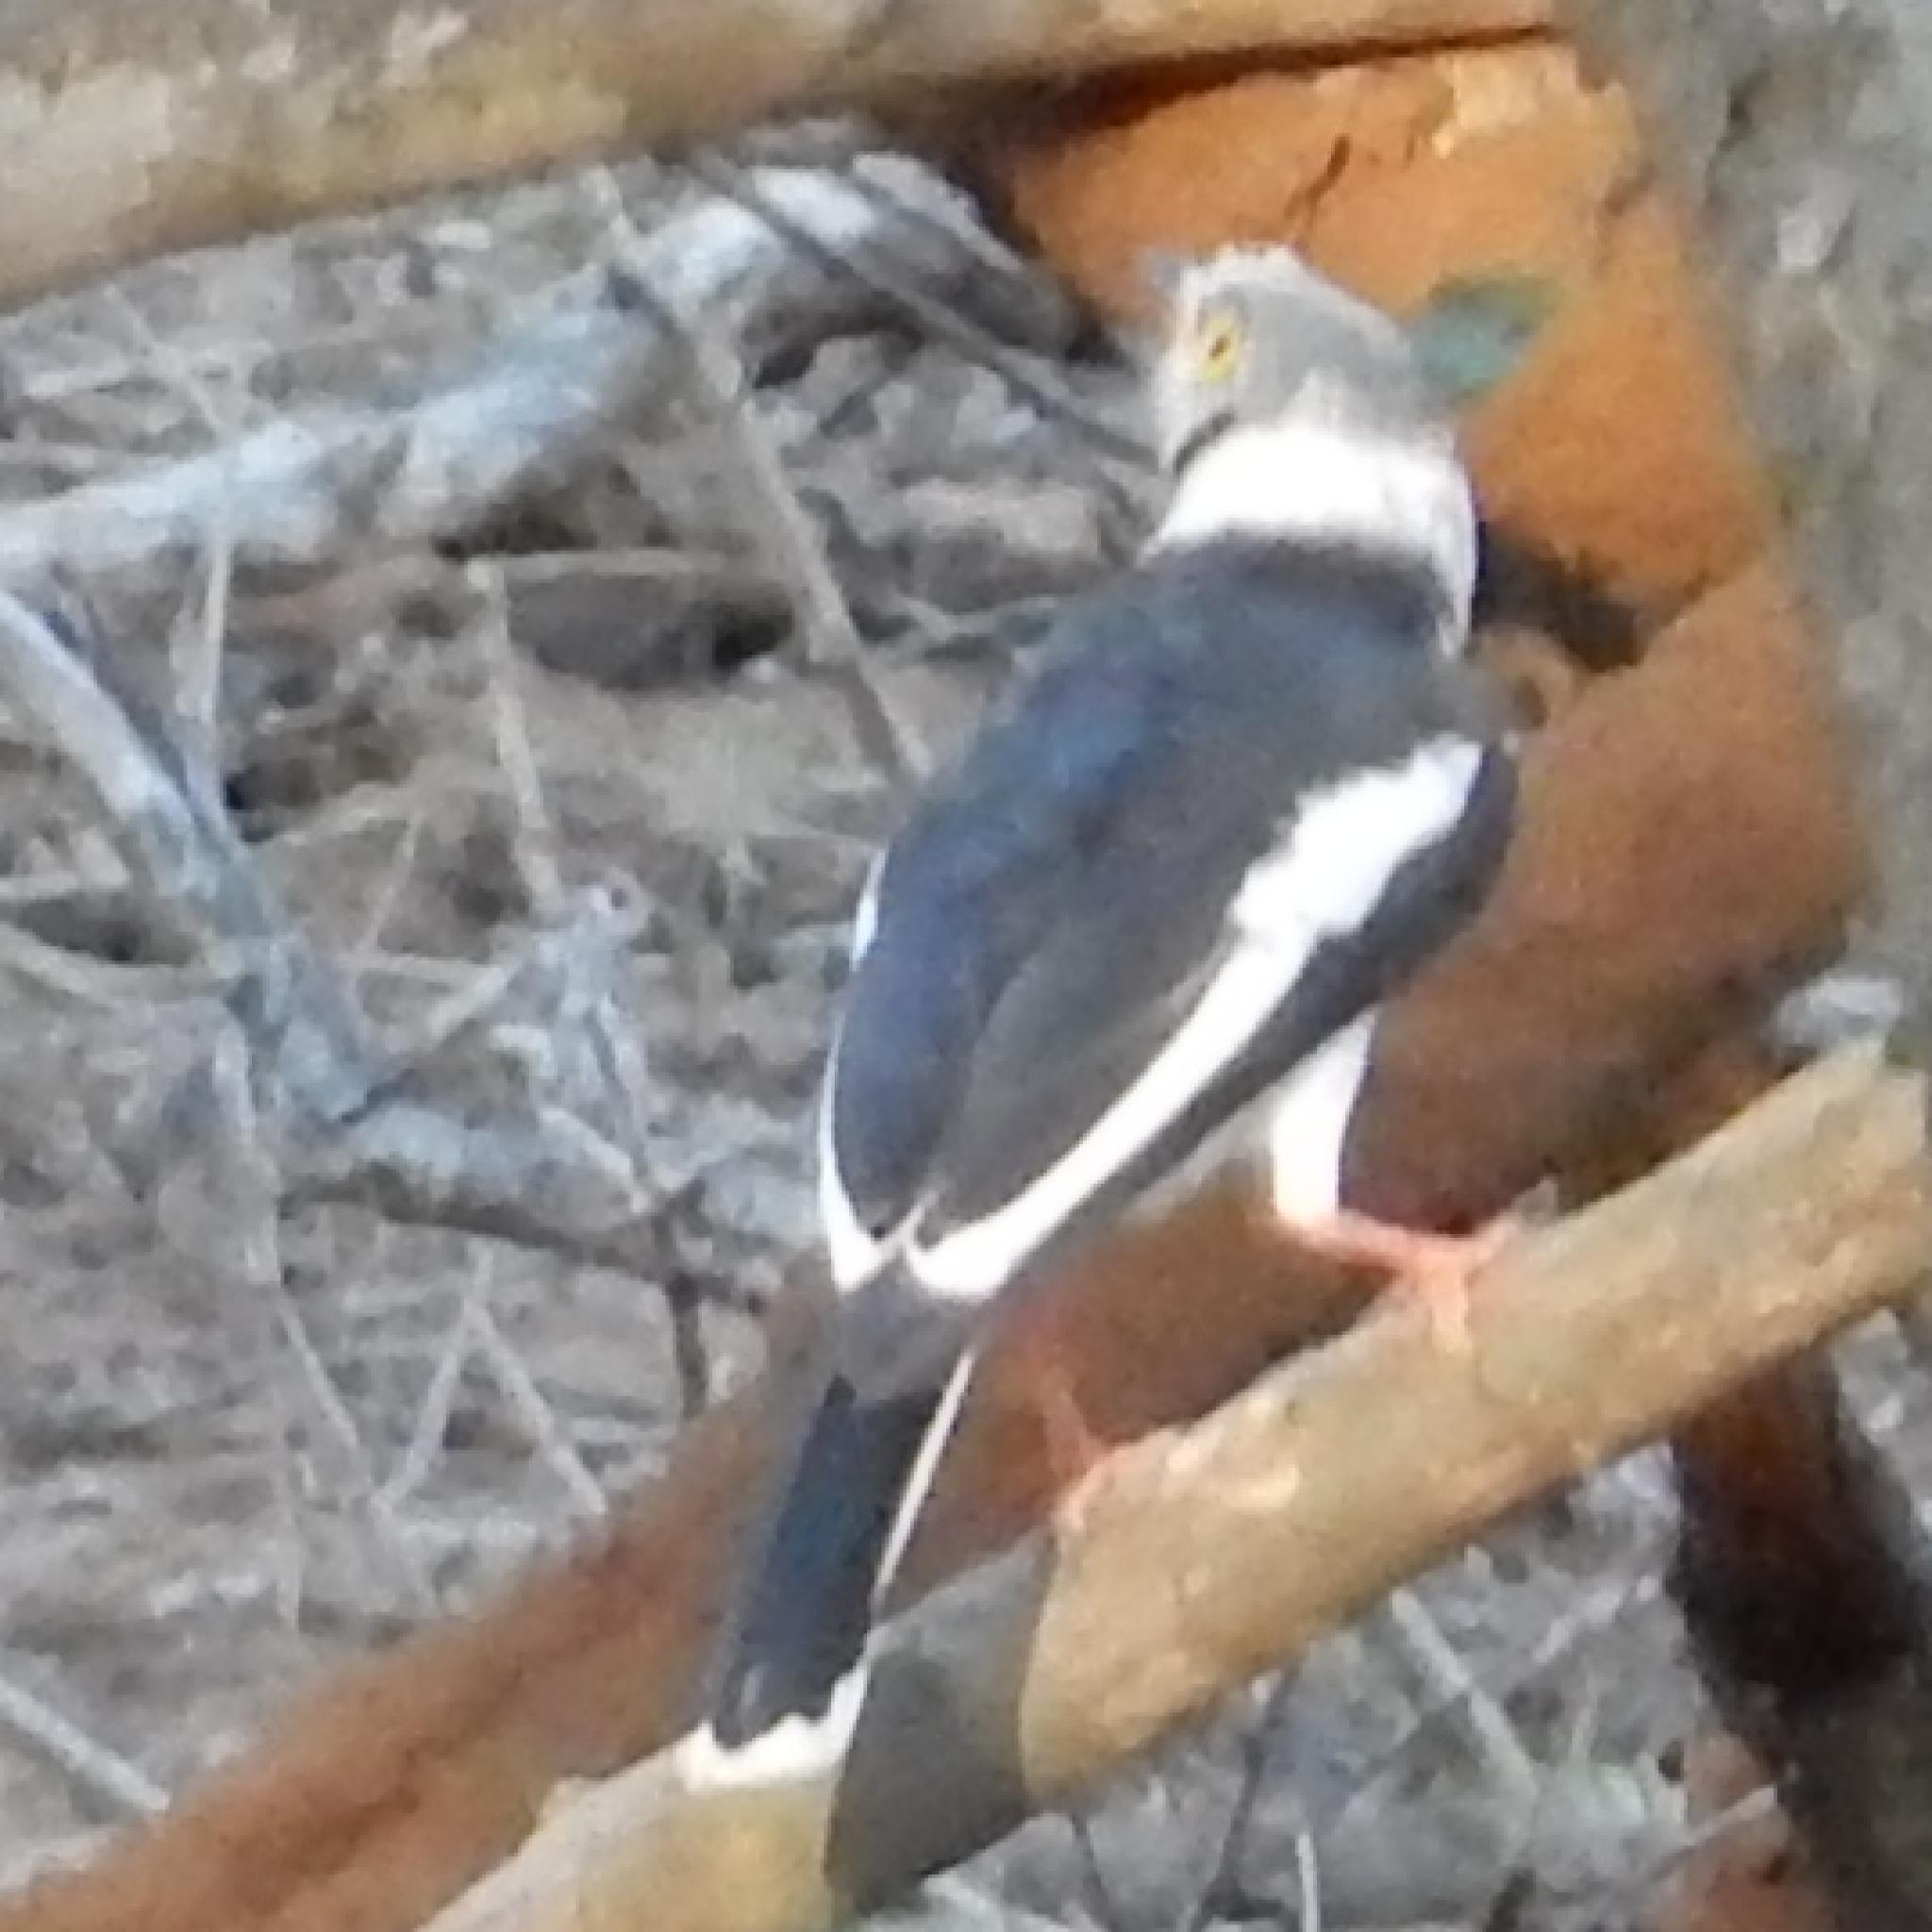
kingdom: Animalia
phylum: Chordata
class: Aves
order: Passeriformes
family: Prionopidae
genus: Prionops
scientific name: Prionops plumatus
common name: White-crested helmetshrike
